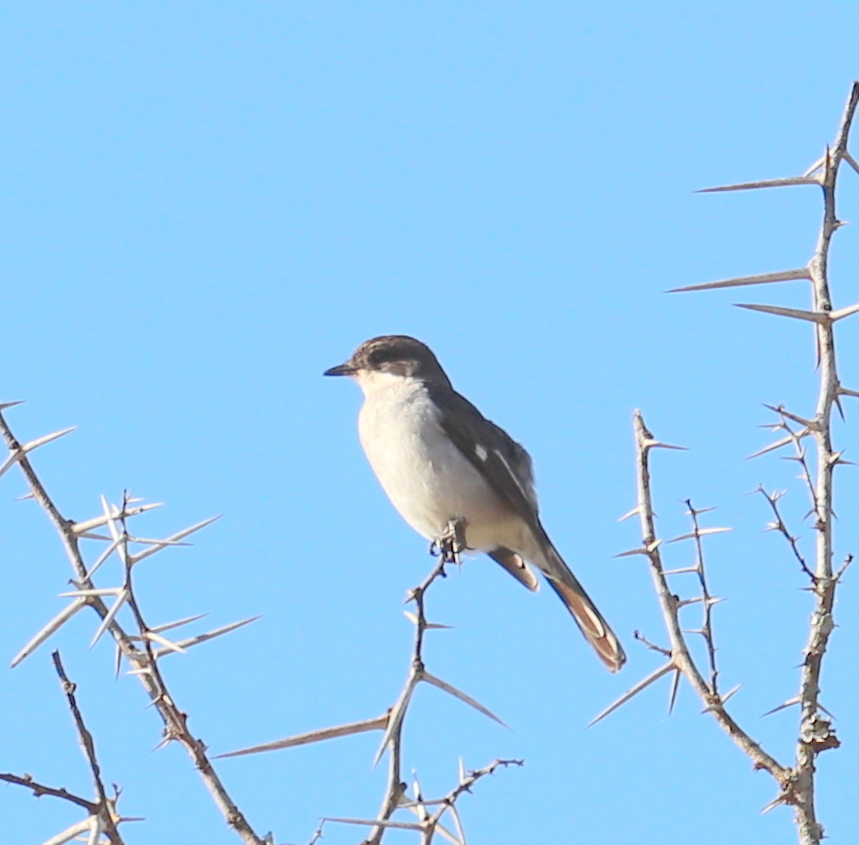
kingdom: Animalia
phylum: Chordata
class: Aves
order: Passeriformes
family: Muscicapidae
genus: Sigelus
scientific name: Sigelus silens
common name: Fiscal flycatcher
